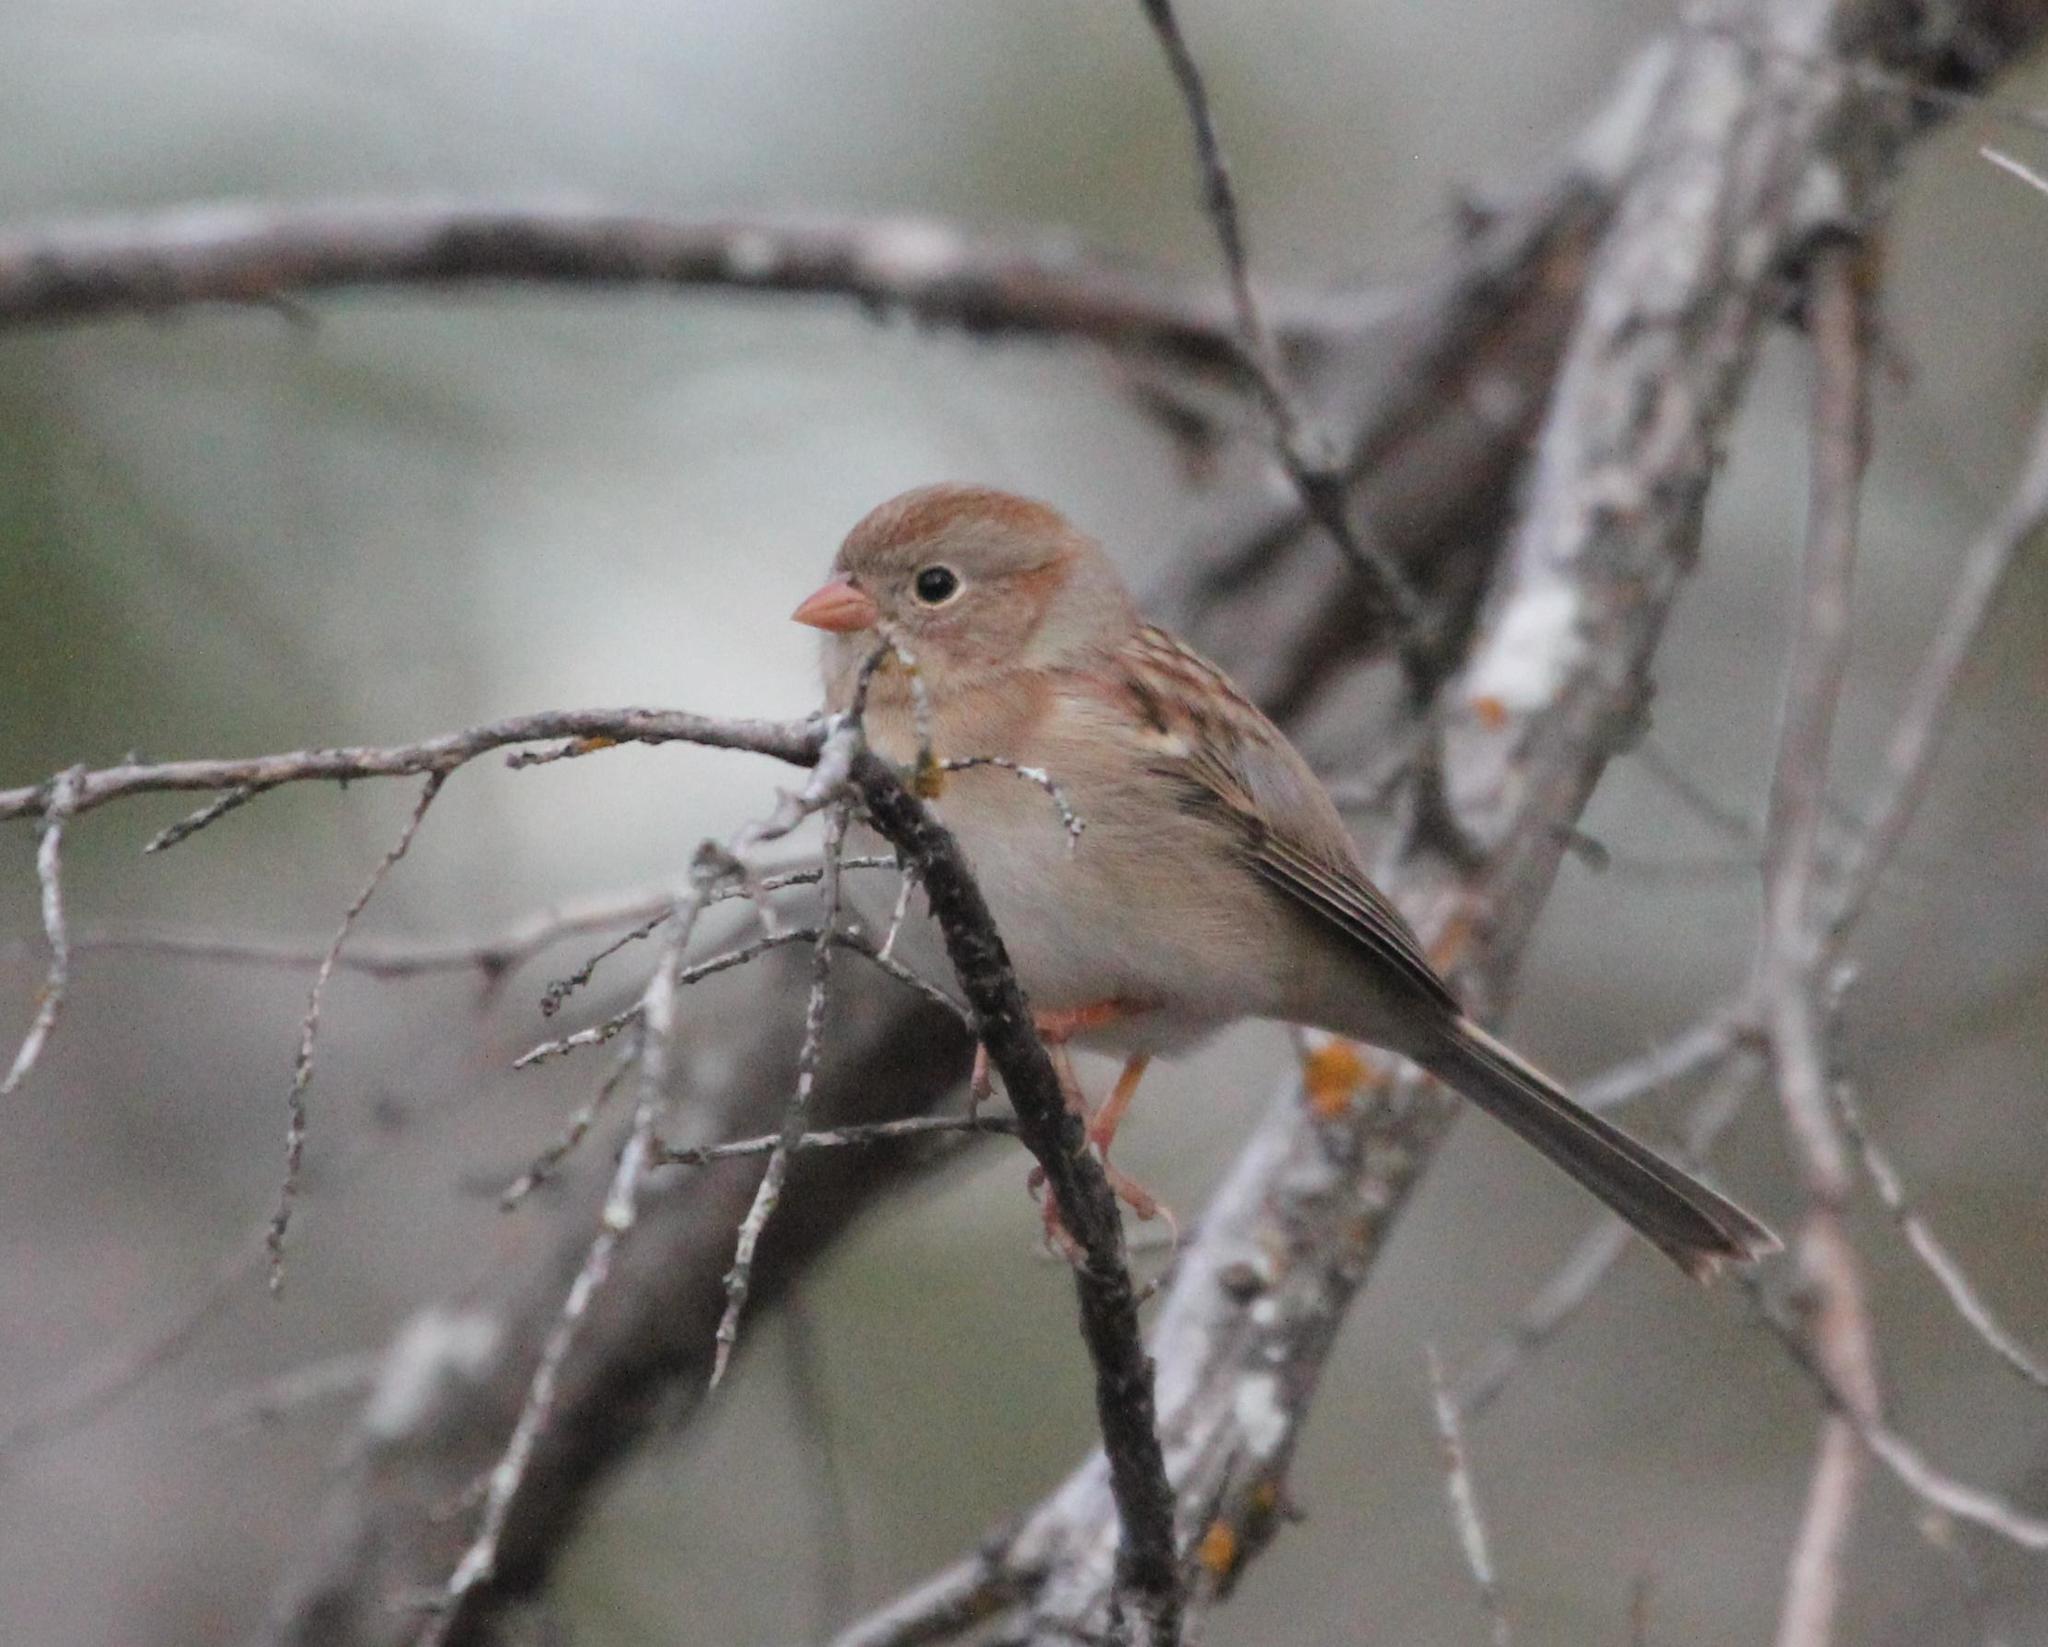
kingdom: Animalia
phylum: Chordata
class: Aves
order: Passeriformes
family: Passerellidae
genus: Spizella
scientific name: Spizella pusilla
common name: Field sparrow
